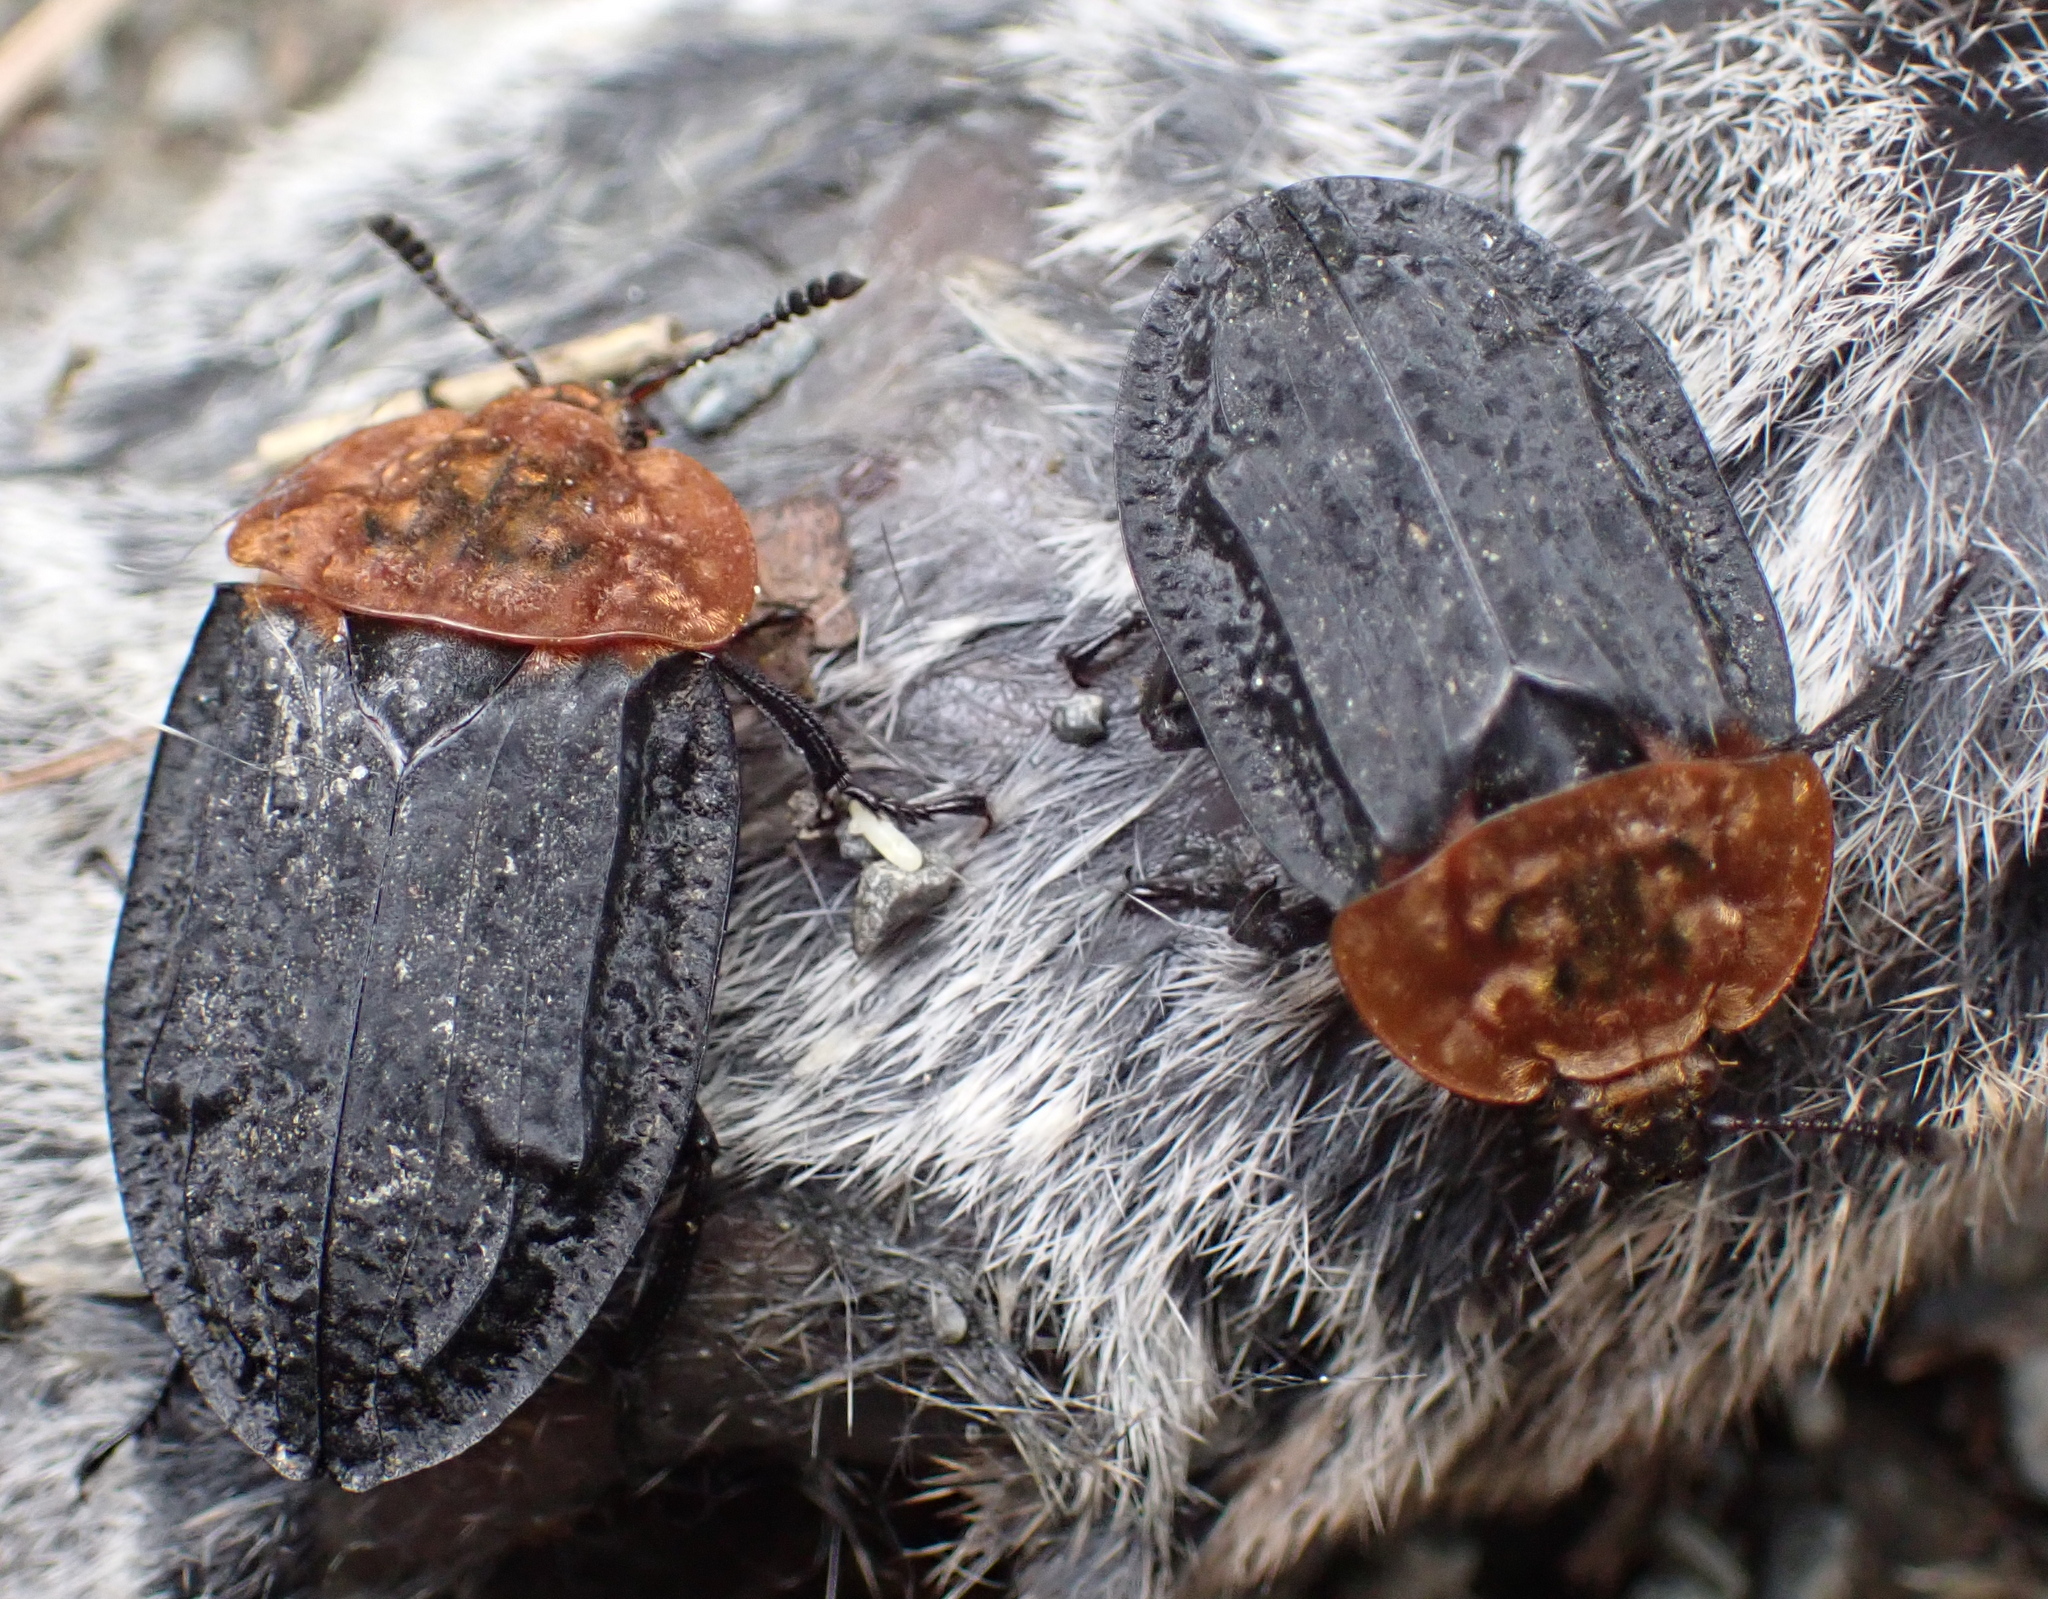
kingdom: Animalia
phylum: Arthropoda
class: Insecta
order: Coleoptera
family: Staphylinidae
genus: Oiceoptoma
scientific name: Oiceoptoma thoracicum
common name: Red-breasted carrion beetle
